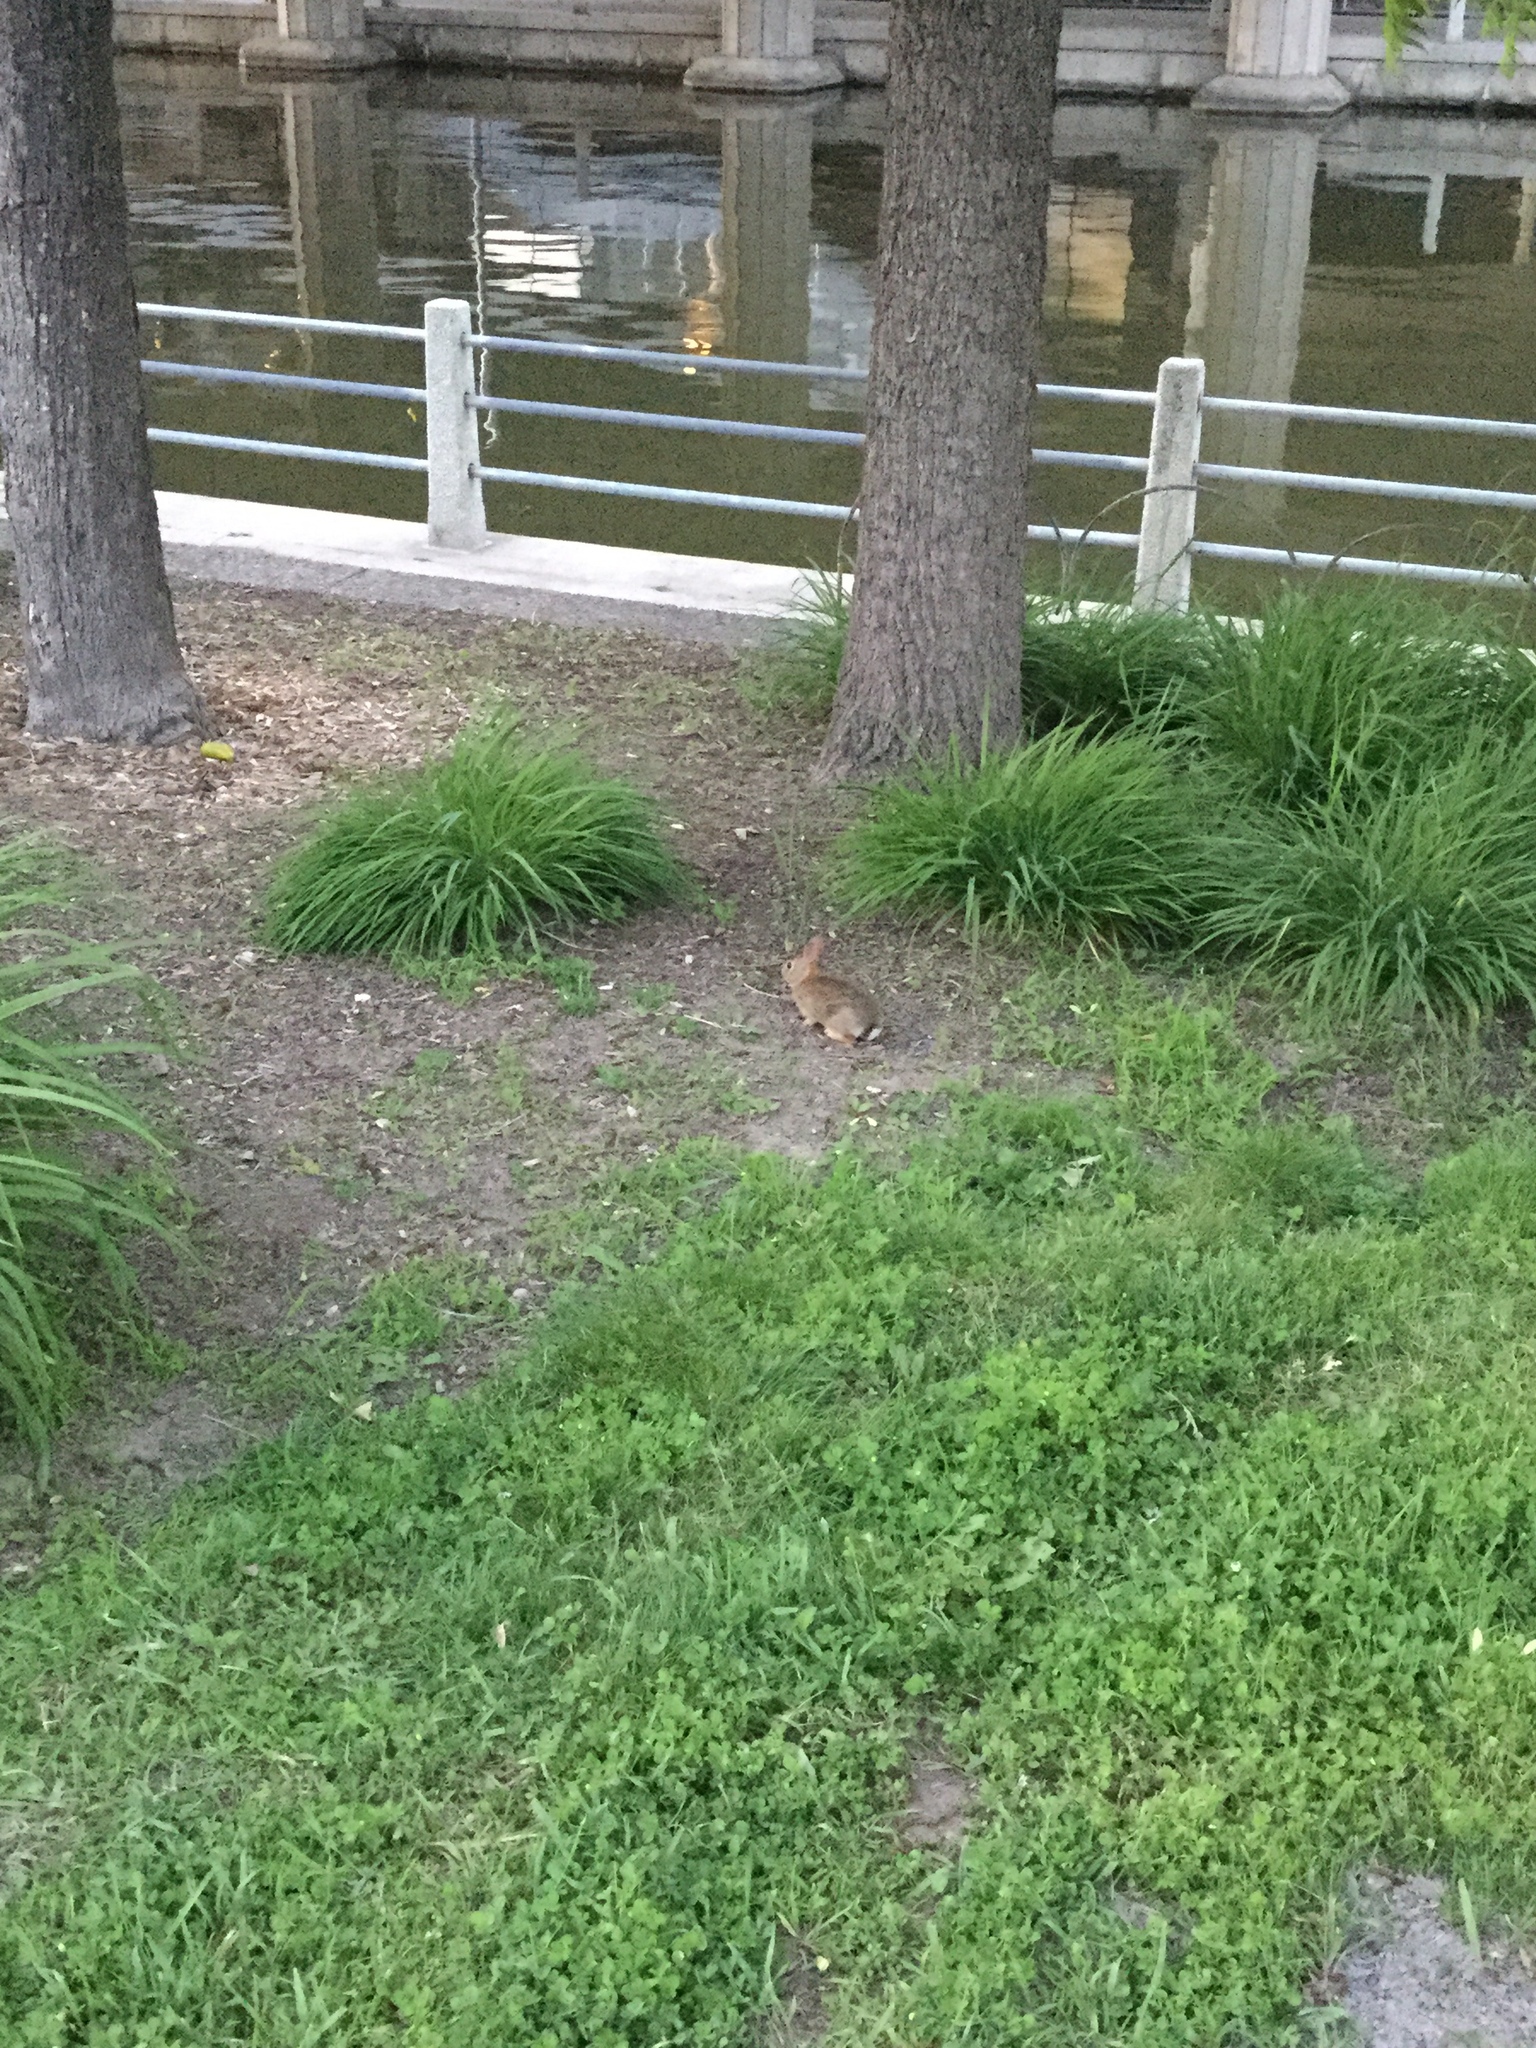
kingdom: Animalia
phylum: Chordata
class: Mammalia
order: Lagomorpha
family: Leporidae
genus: Sylvilagus
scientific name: Sylvilagus floridanus
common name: Eastern cottontail
